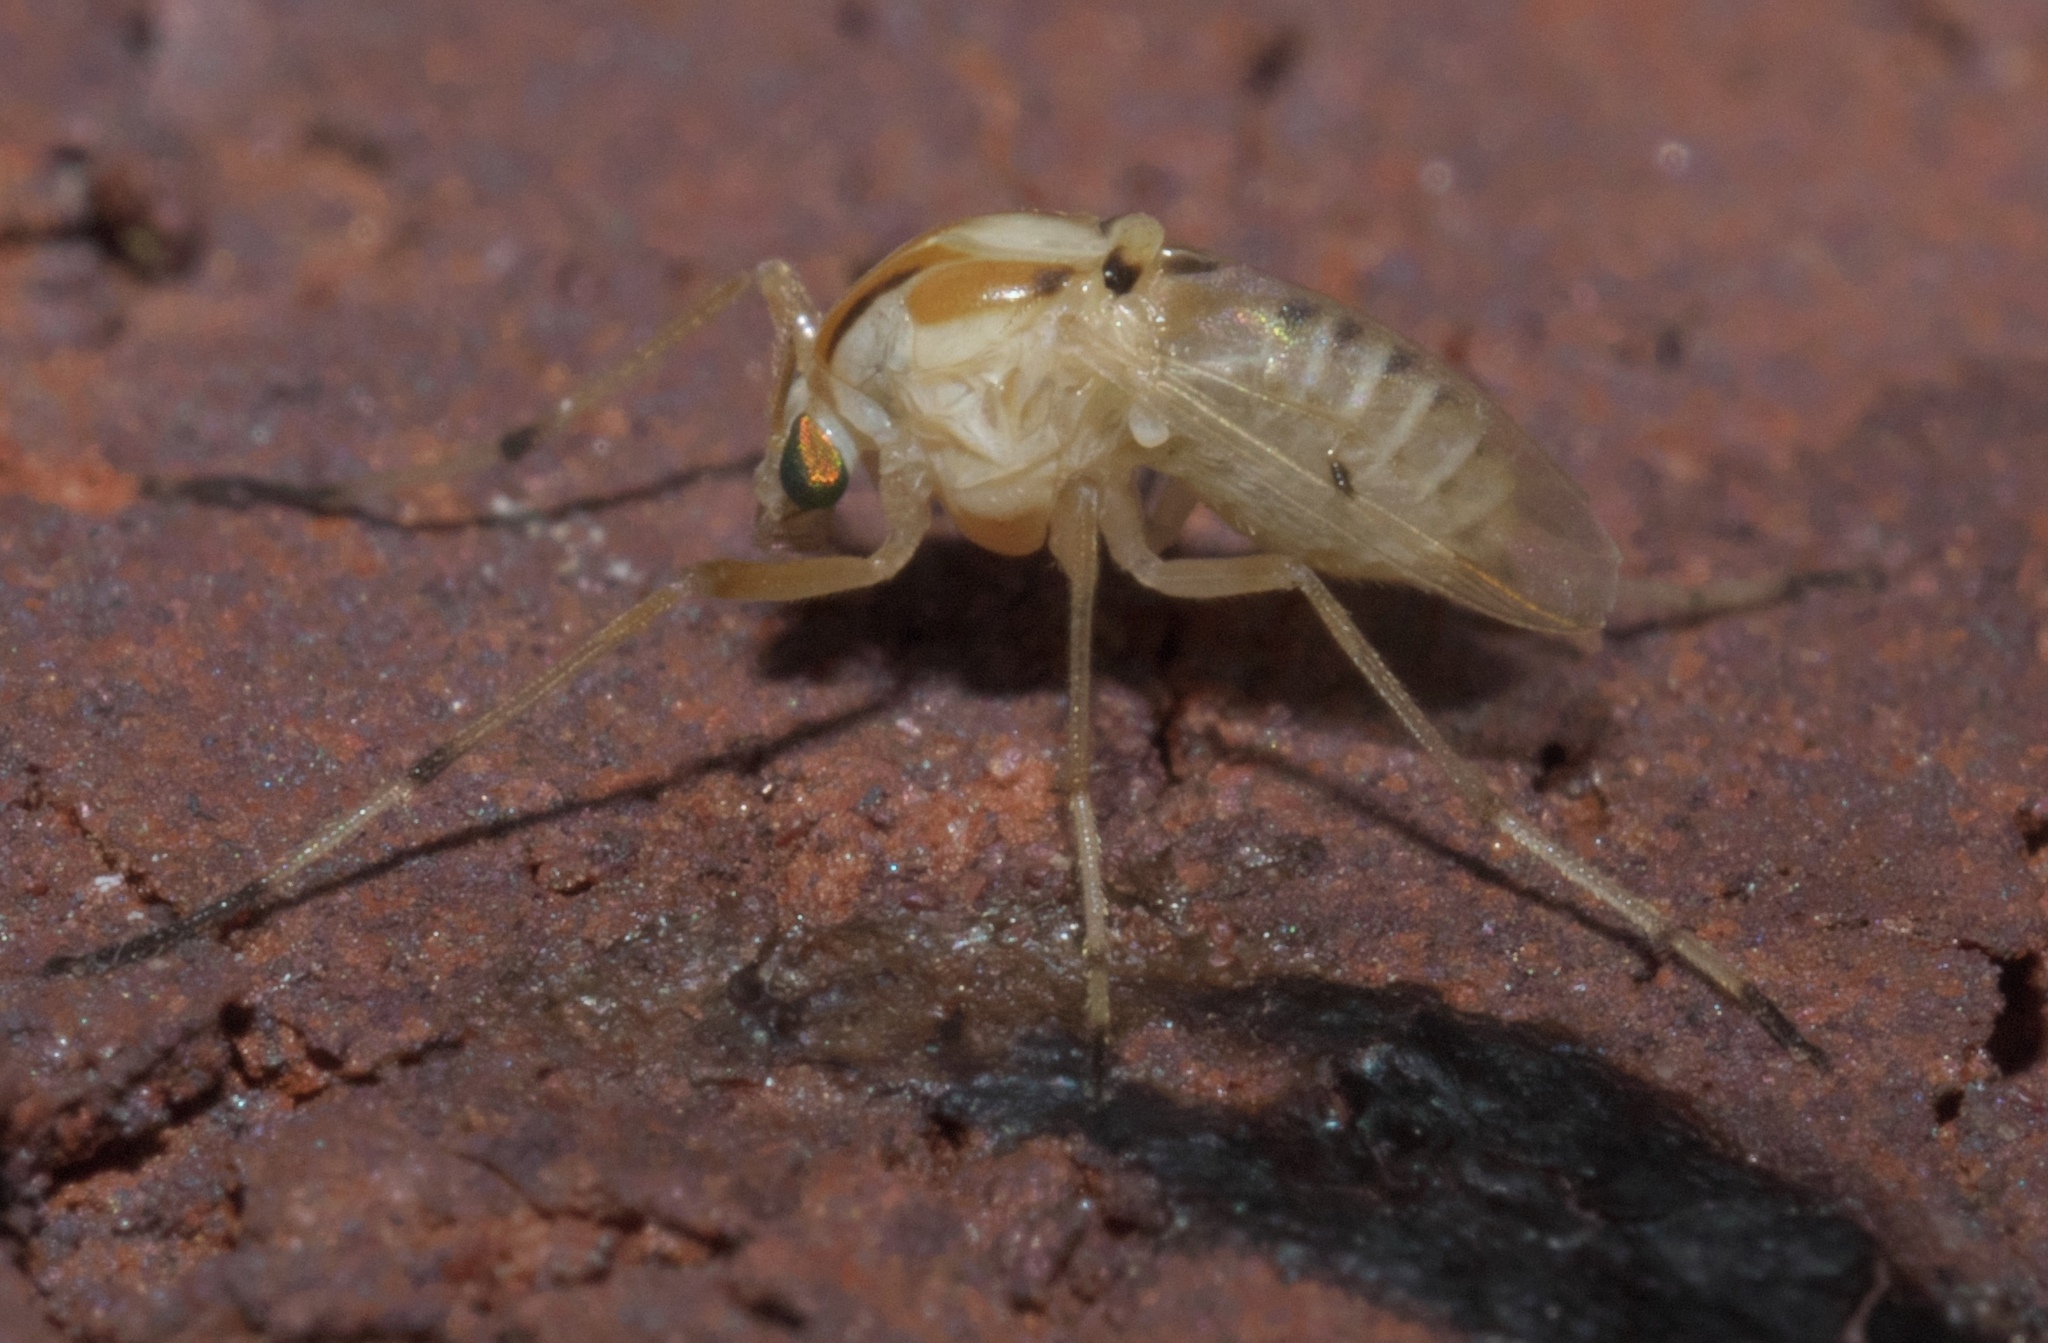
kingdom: Animalia
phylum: Arthropoda
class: Insecta
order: Diptera
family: Chironomidae
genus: Coelotanypus
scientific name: Coelotanypus concinnus
